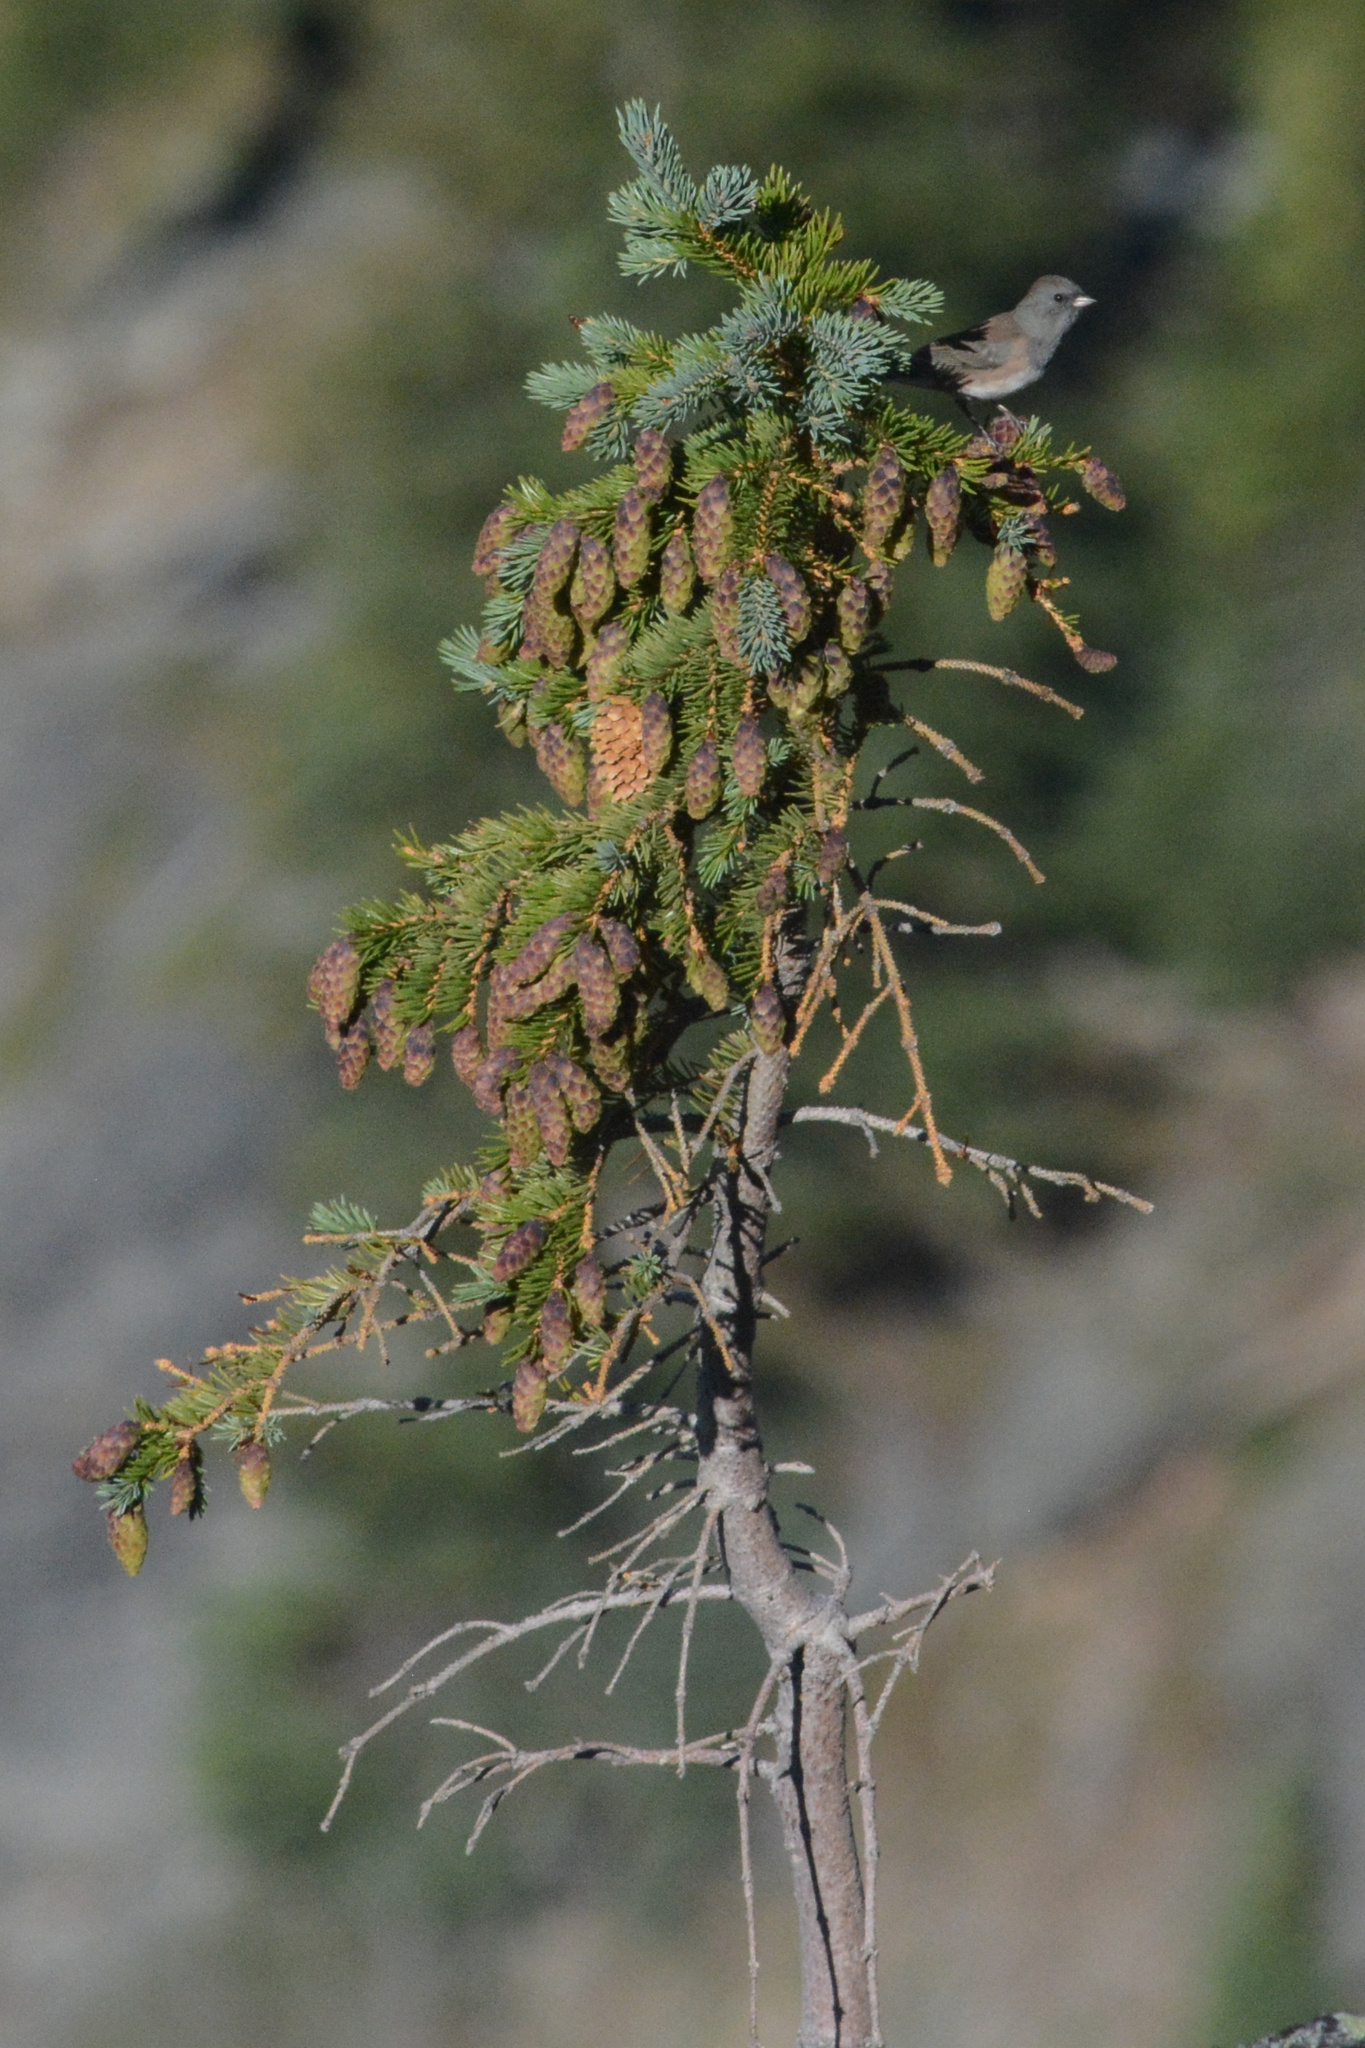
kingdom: Animalia
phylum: Chordata
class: Aves
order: Passeriformes
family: Passerellidae
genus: Junco
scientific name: Junco hyemalis
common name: Dark-eyed junco
